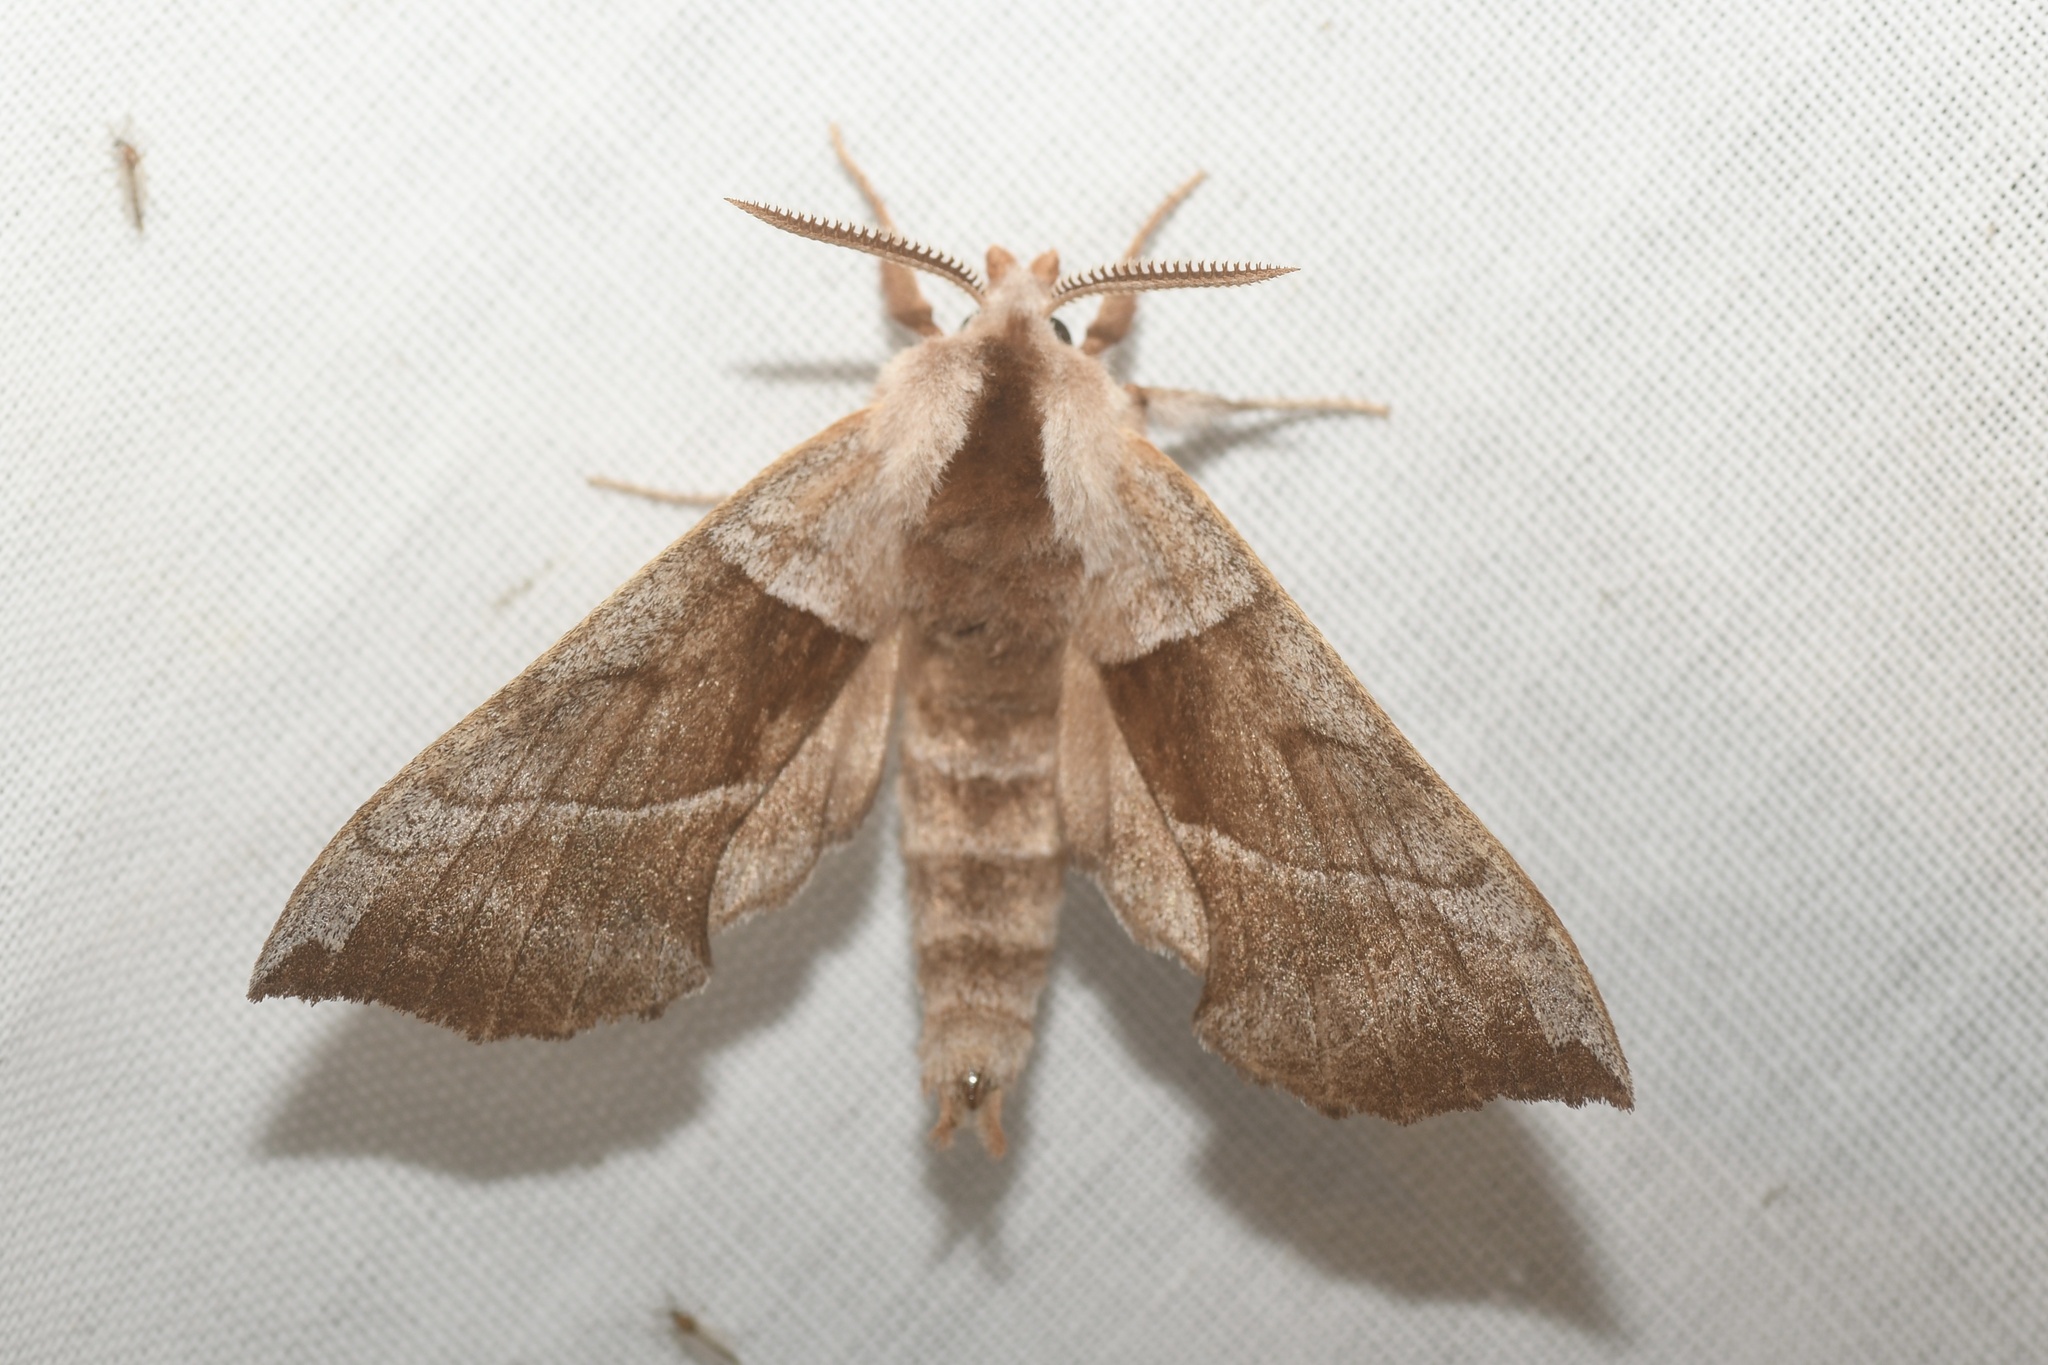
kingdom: Animalia
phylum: Arthropoda
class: Insecta
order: Lepidoptera
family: Sphingidae
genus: Amorpha
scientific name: Amorpha juglandis
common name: Walnut sphinx
